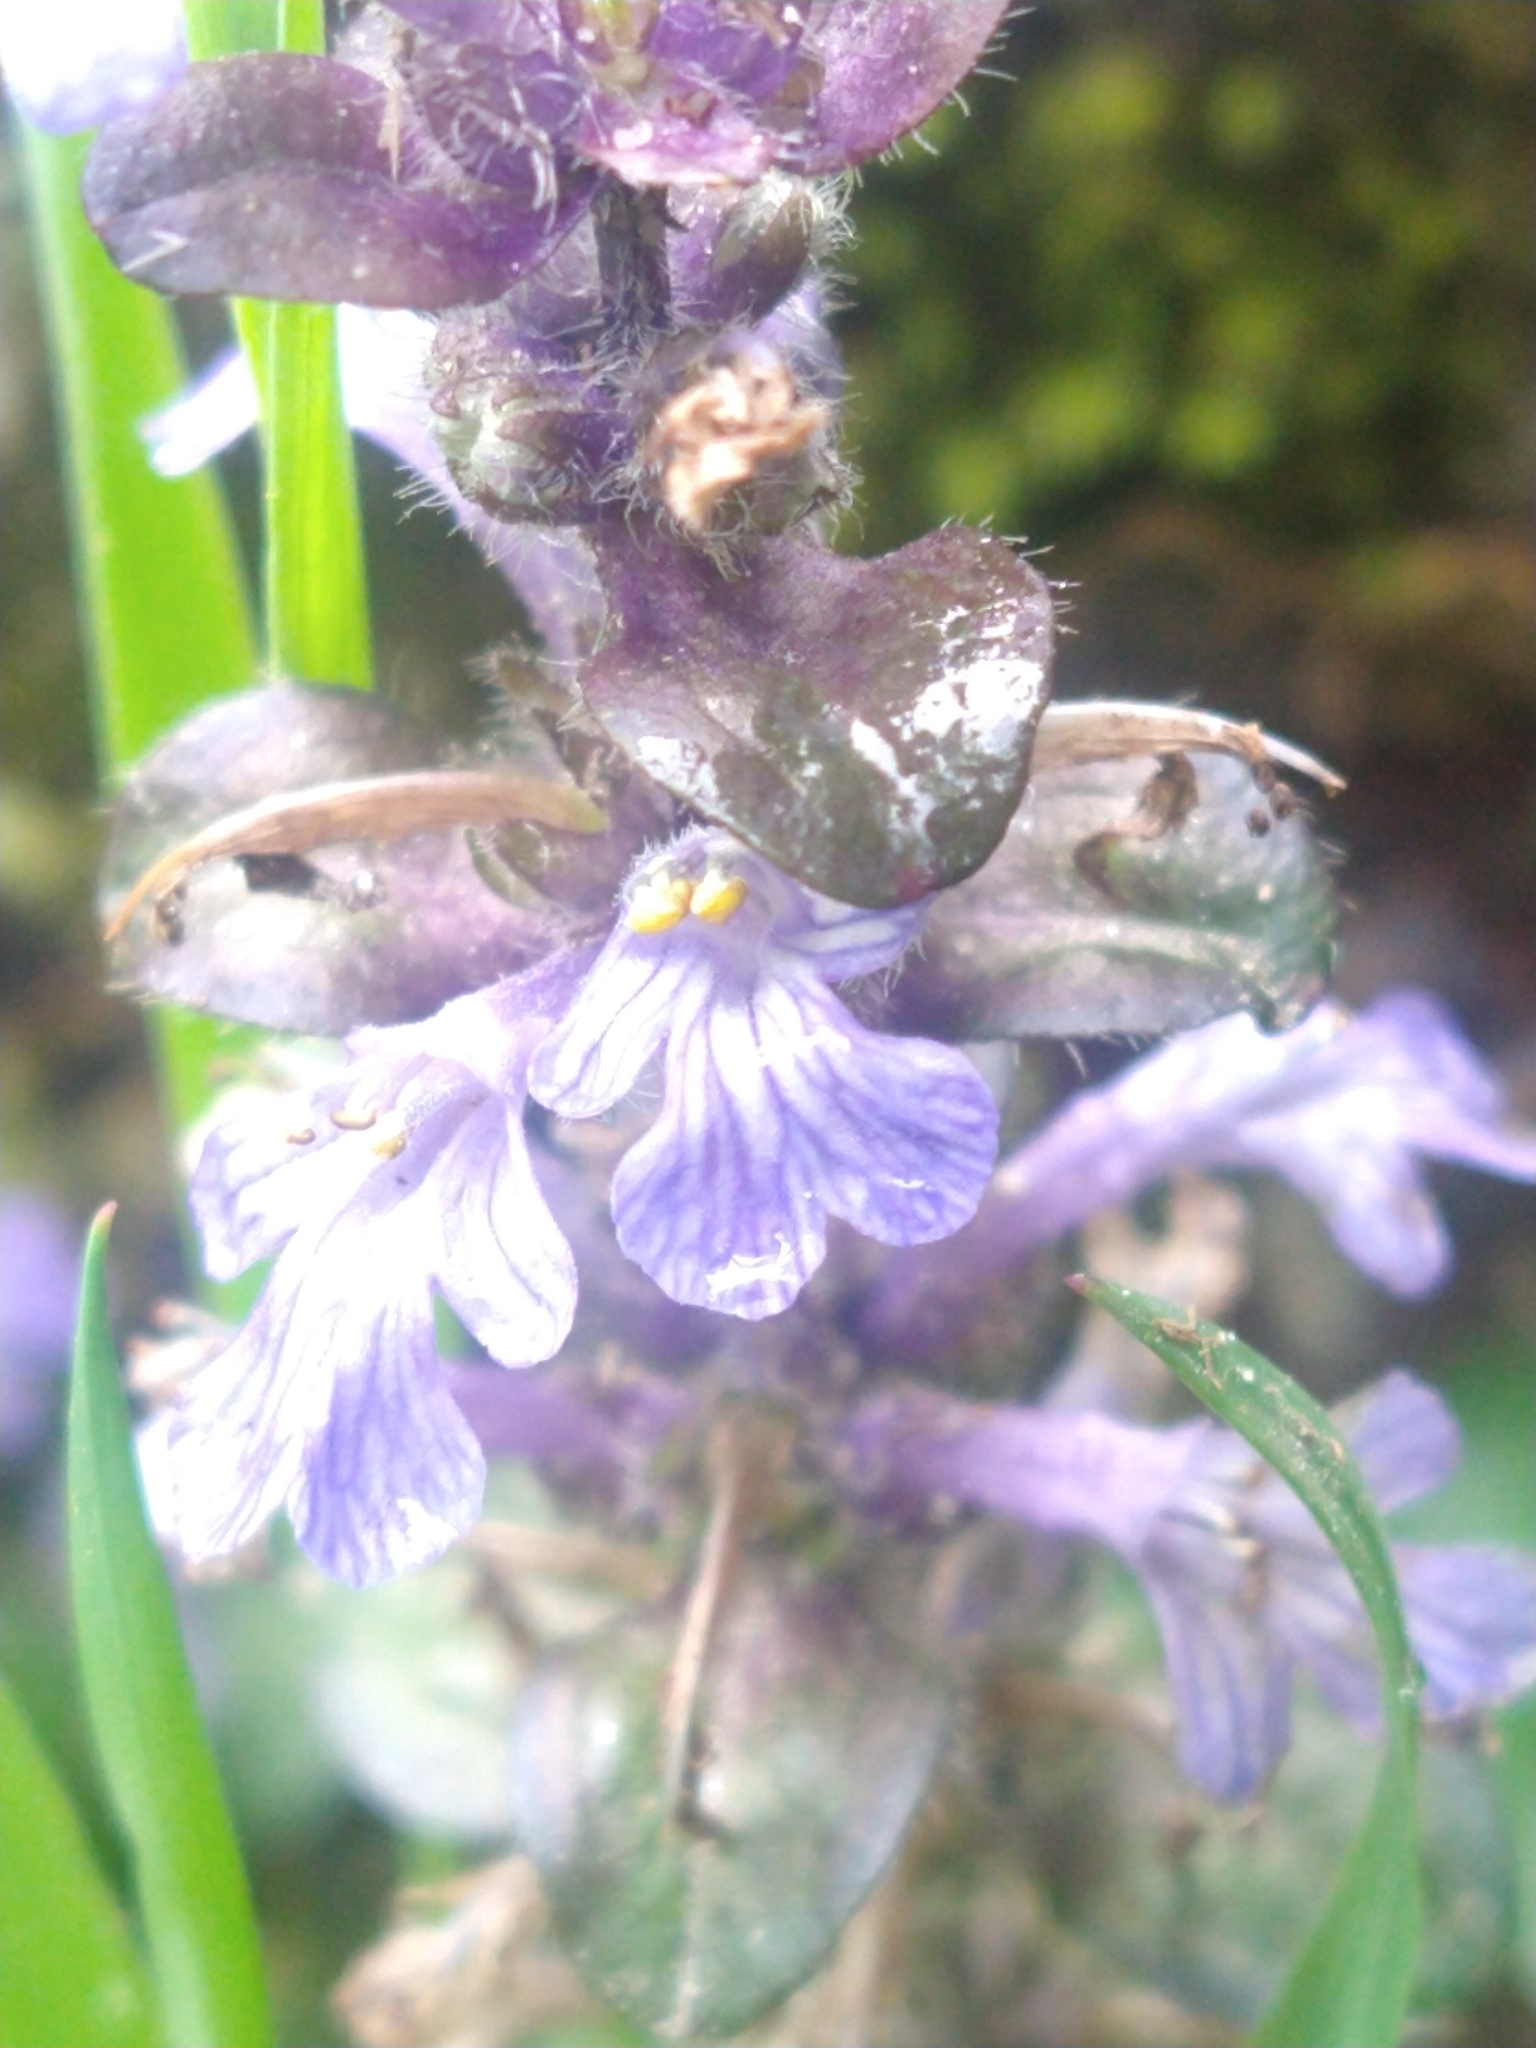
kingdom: Plantae
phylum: Tracheophyta
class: Magnoliopsida
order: Lamiales
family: Lamiaceae
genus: Ajuga
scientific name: Ajuga reptans
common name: Bugle
